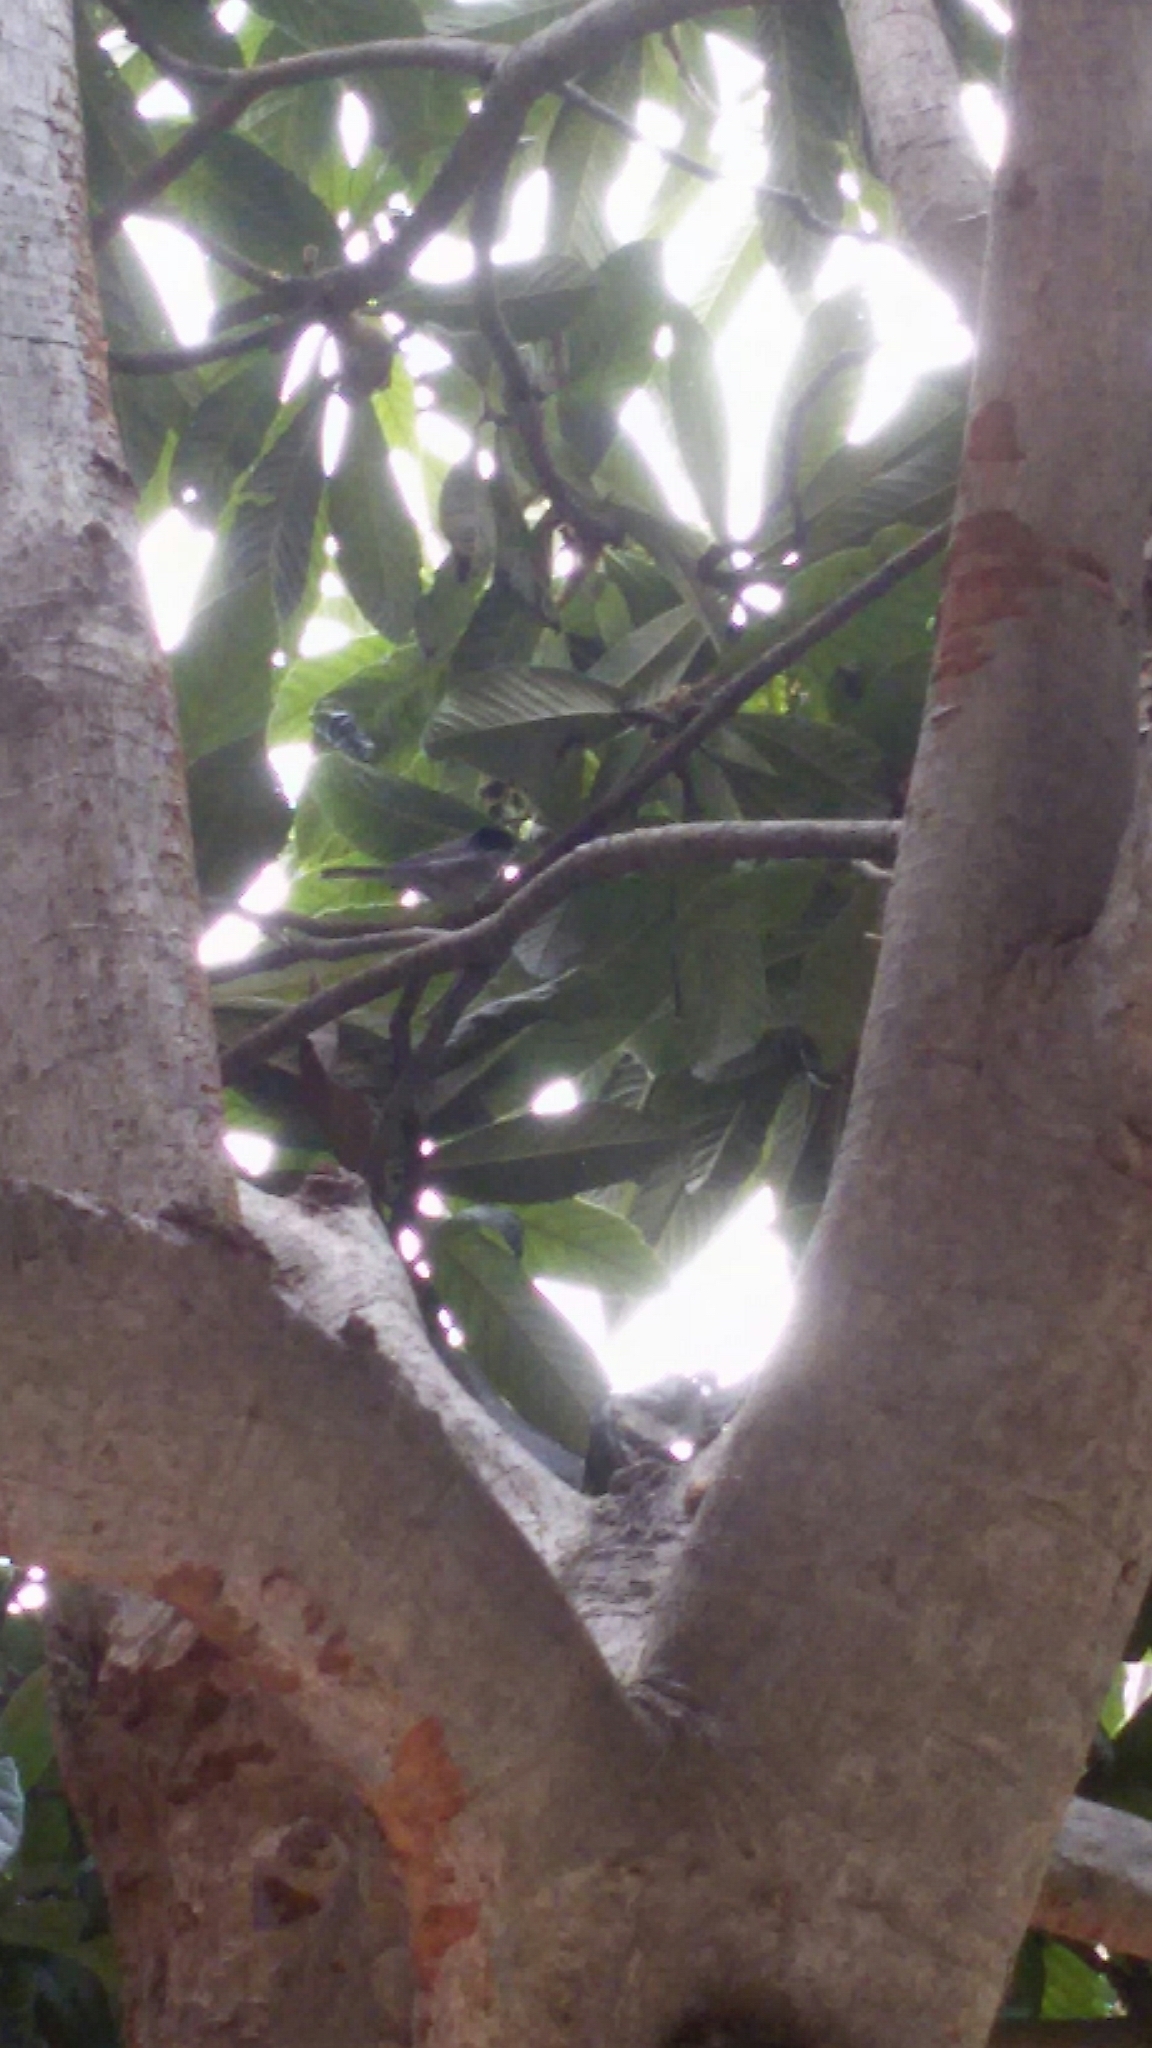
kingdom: Animalia
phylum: Chordata
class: Aves
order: Passeriformes
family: Sylviidae
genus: Curruca
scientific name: Curruca melanocephala
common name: Sardinian warbler
